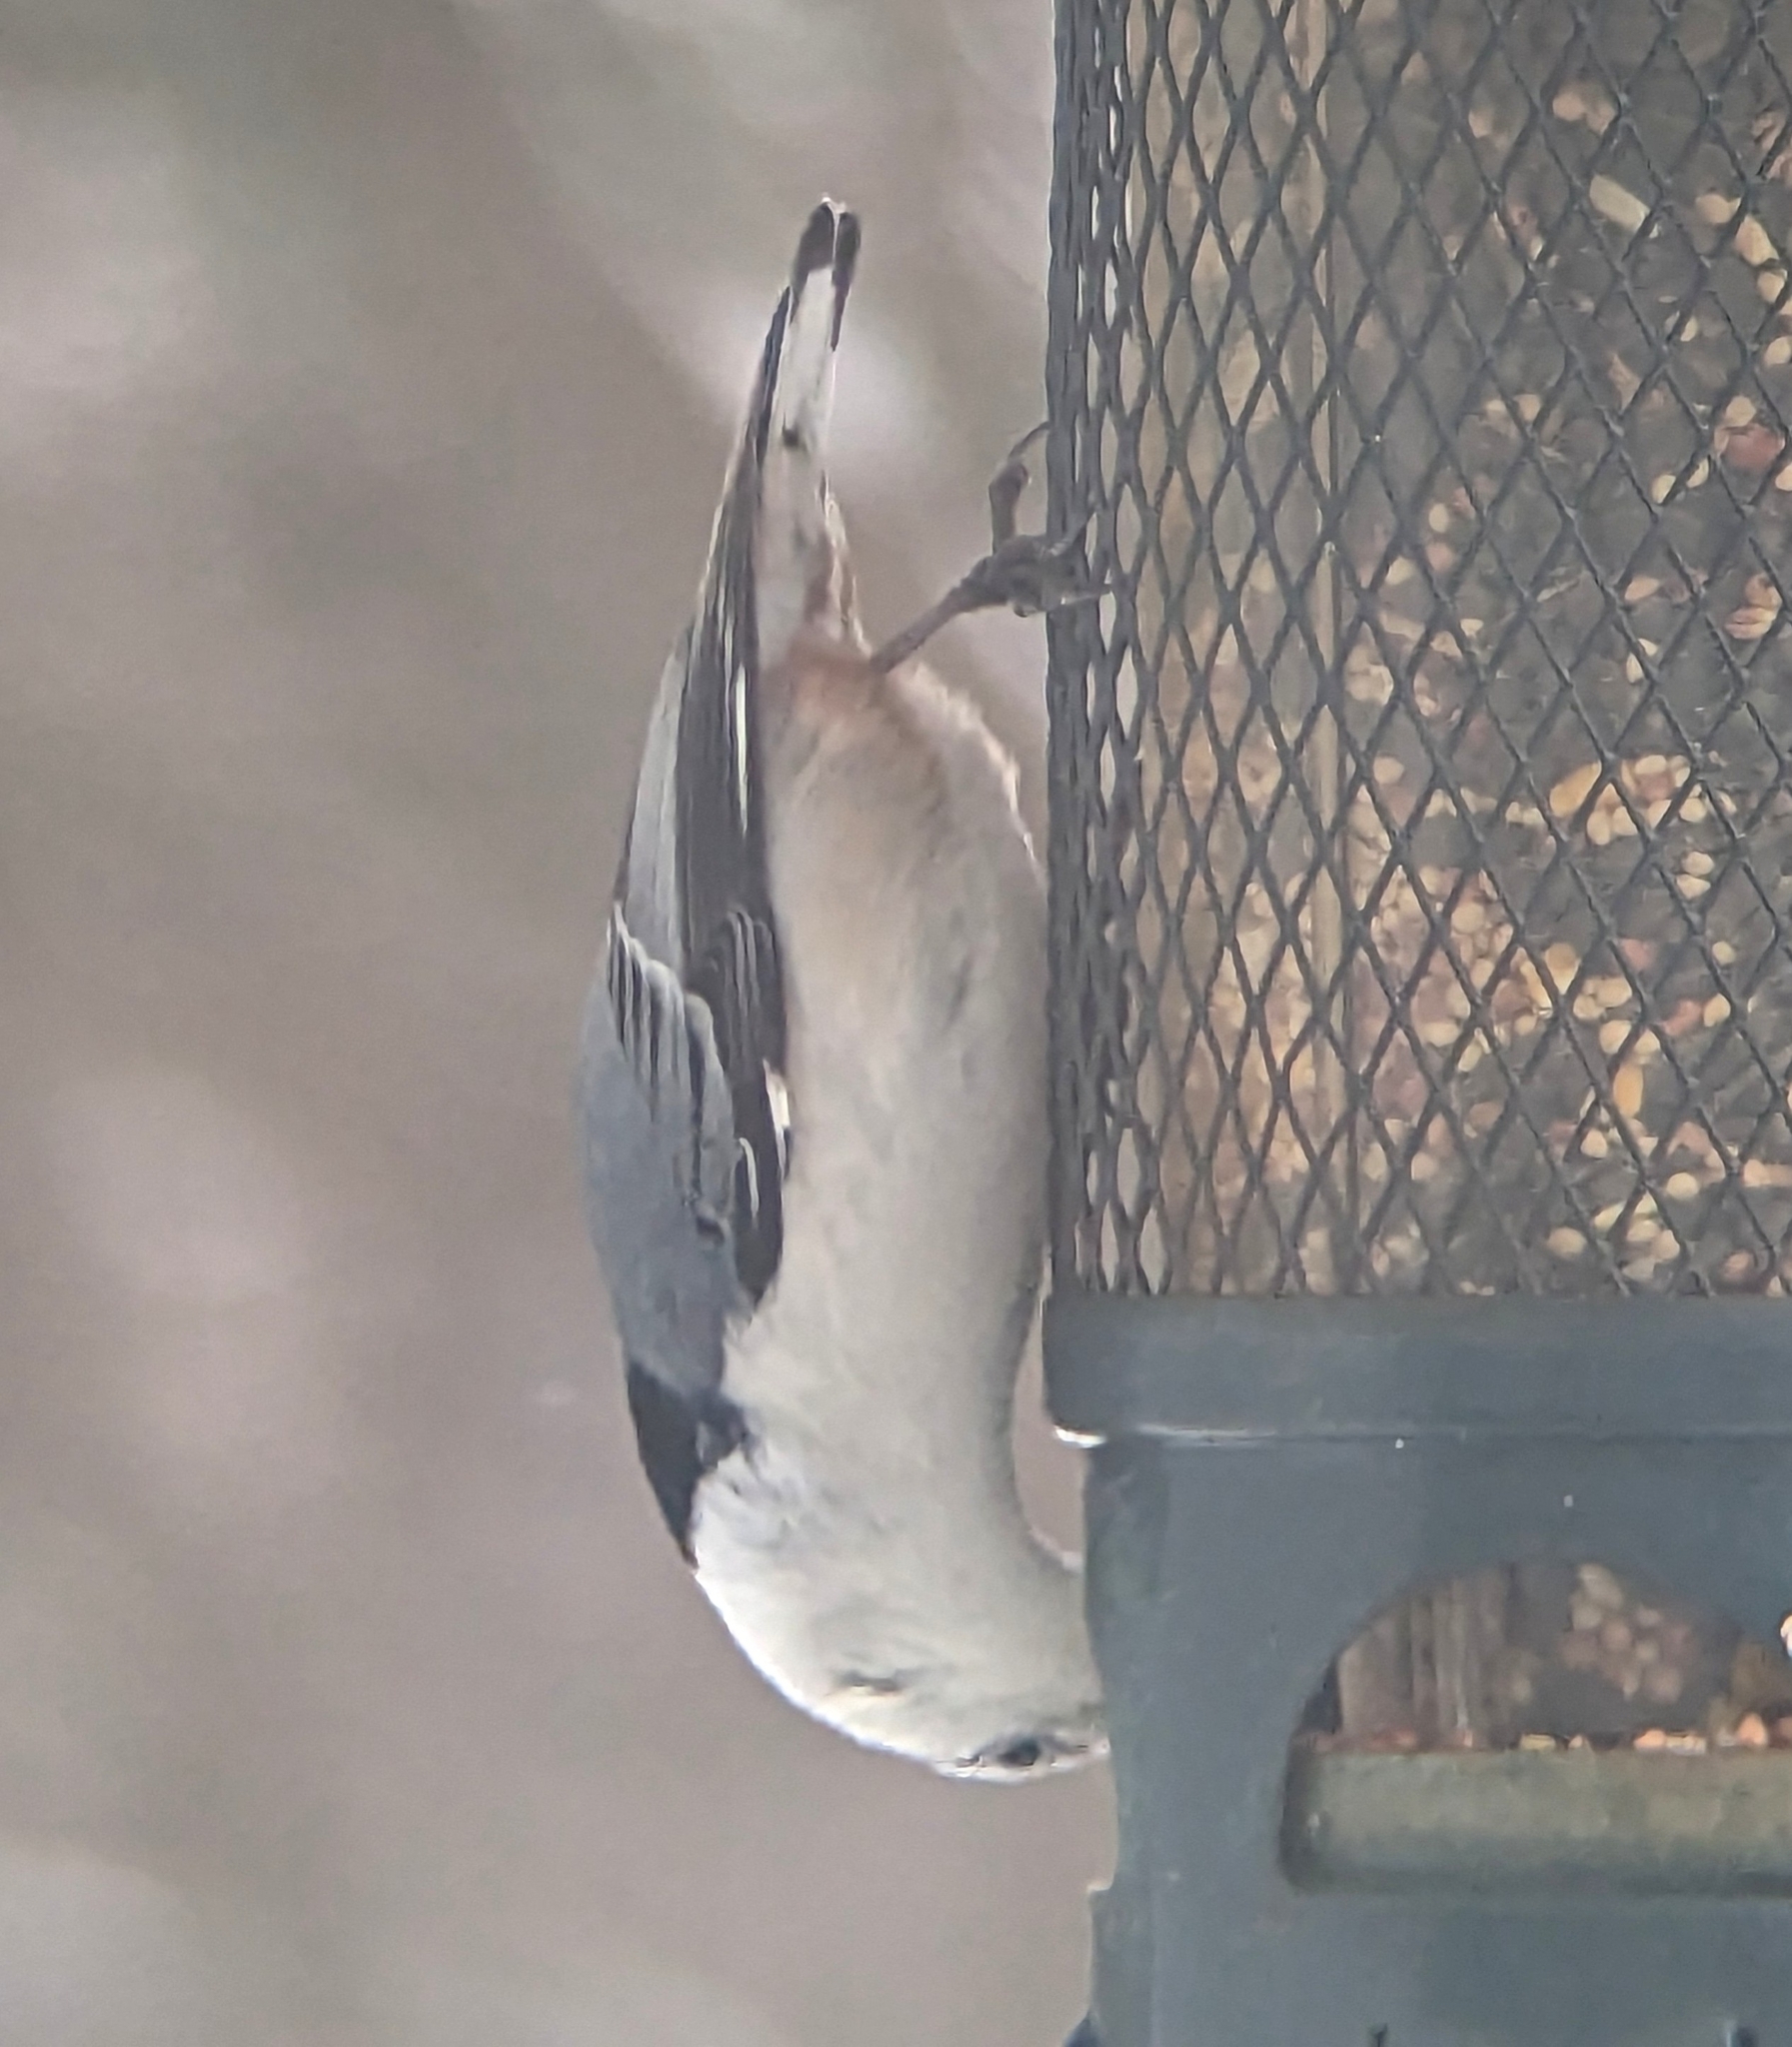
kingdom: Animalia
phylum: Chordata
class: Aves
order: Passeriformes
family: Sittidae
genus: Sitta
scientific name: Sitta carolinensis
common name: White-breasted nuthatch
